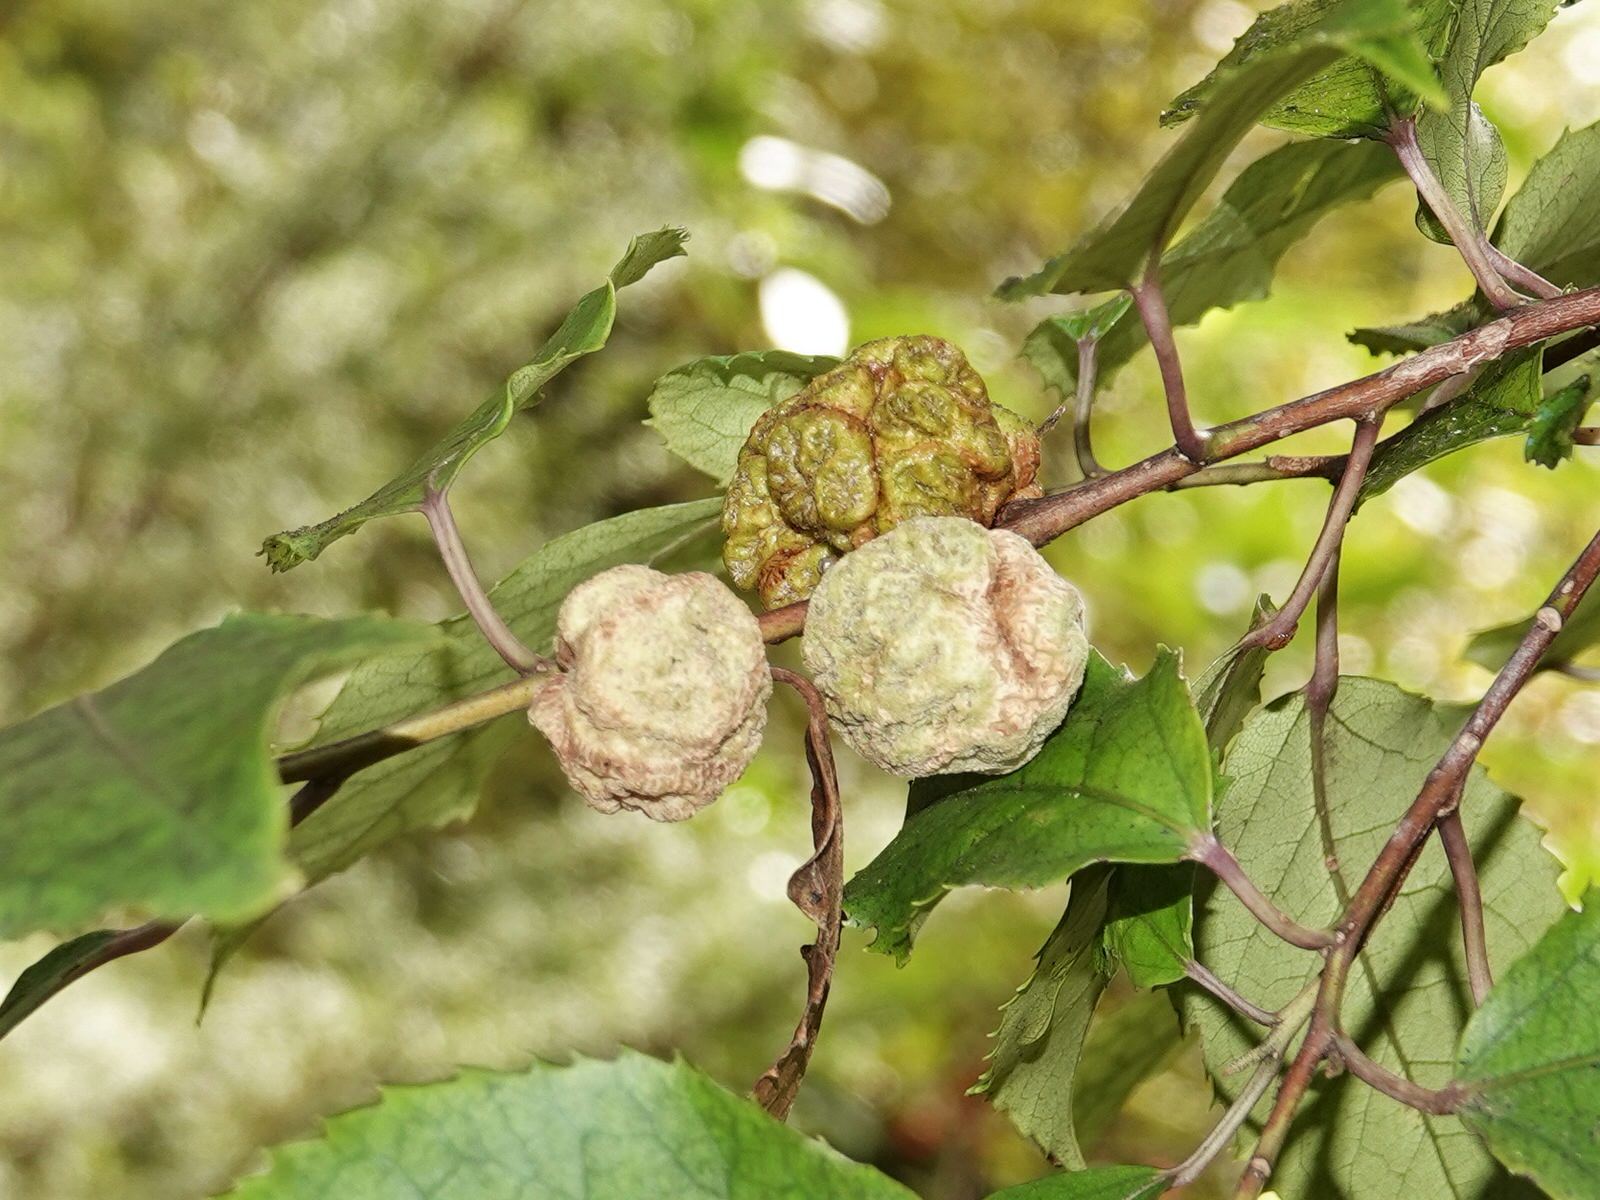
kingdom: Plantae
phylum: Tracheophyta
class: Magnoliopsida
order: Malvales
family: Malvaceae
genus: Hoheria
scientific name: Hoheria populnea
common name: Lacebark
